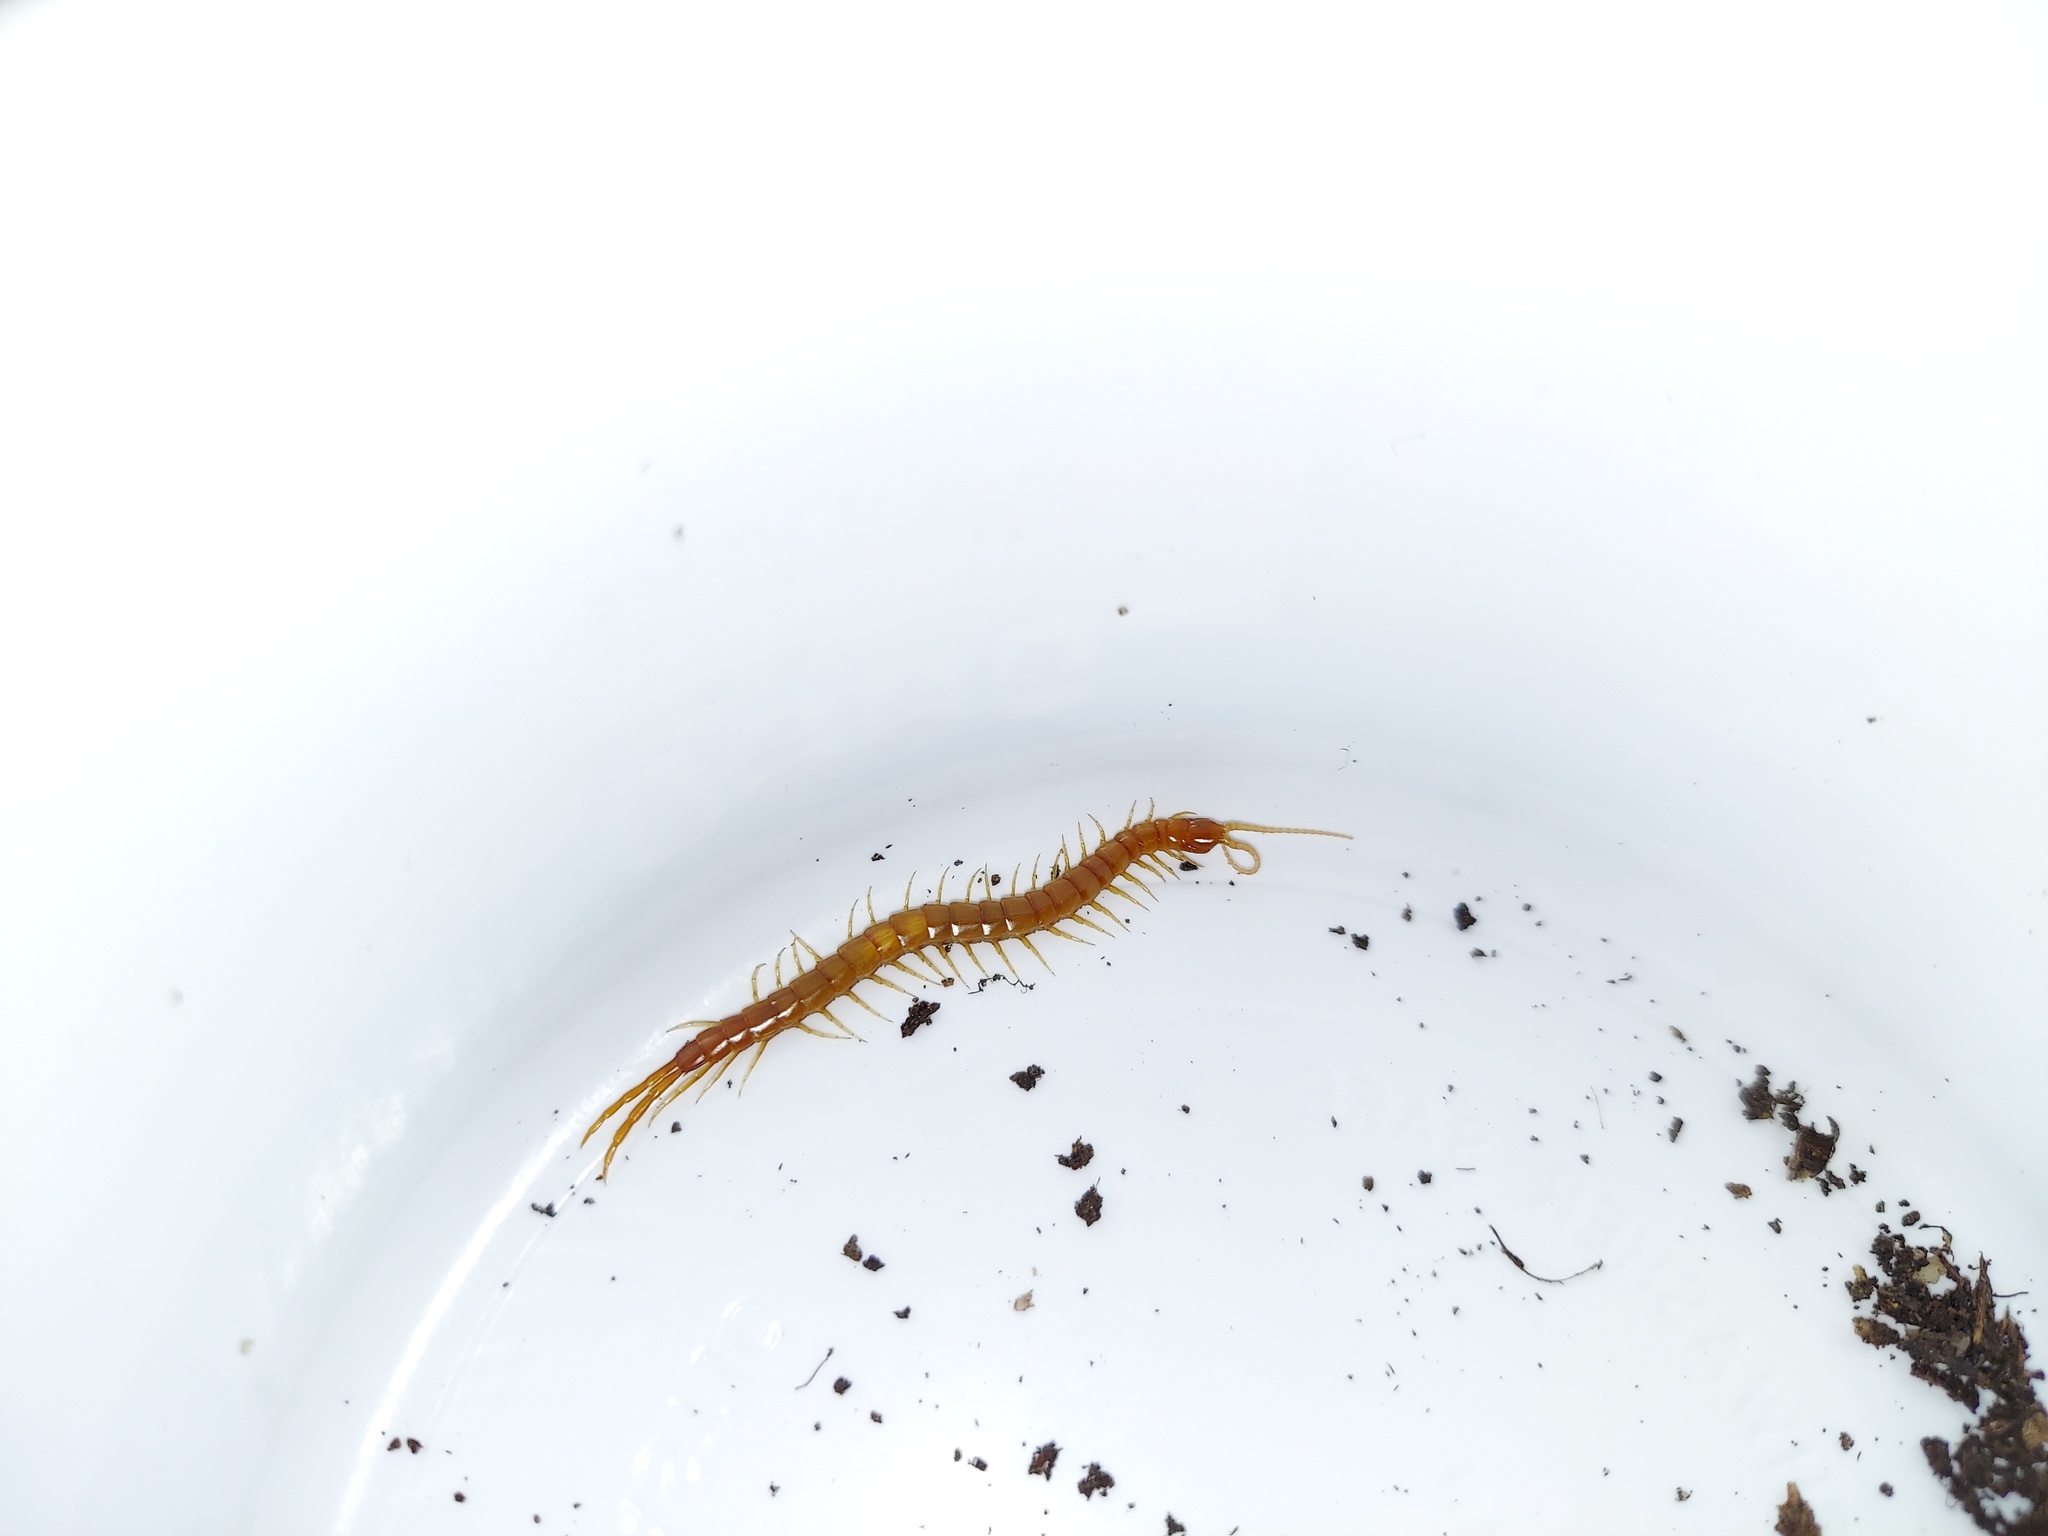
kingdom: Animalia
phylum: Arthropoda
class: Chilopoda
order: Scolopendromorpha
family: Scolopocryptopidae
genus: Scolopocryptops
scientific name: Scolopocryptops peregrinator
